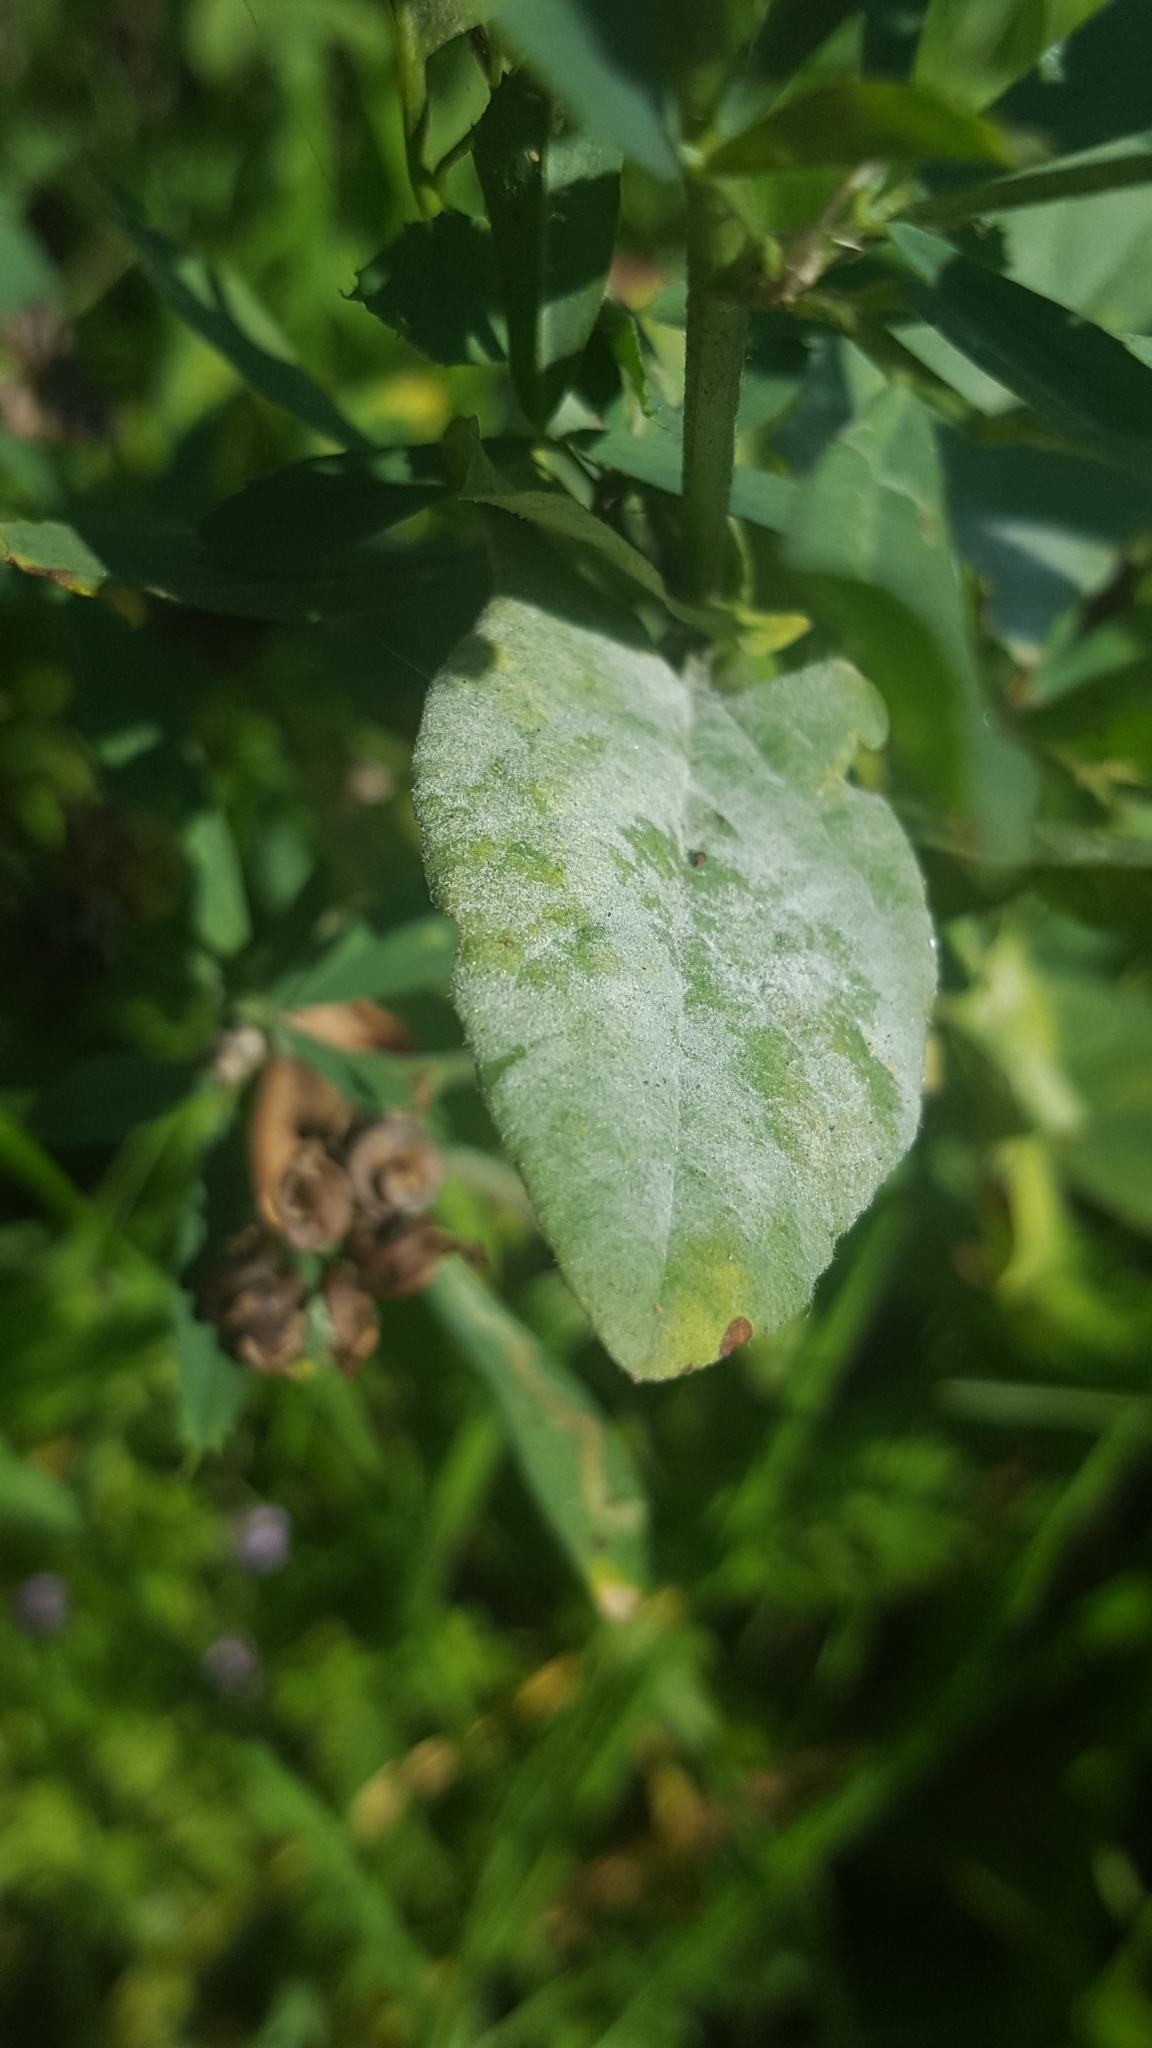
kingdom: Fungi
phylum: Ascomycota
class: Leotiomycetes
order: Helotiales
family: Erysiphaceae
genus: Erysiphe
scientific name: Erysiphe convolvuli
